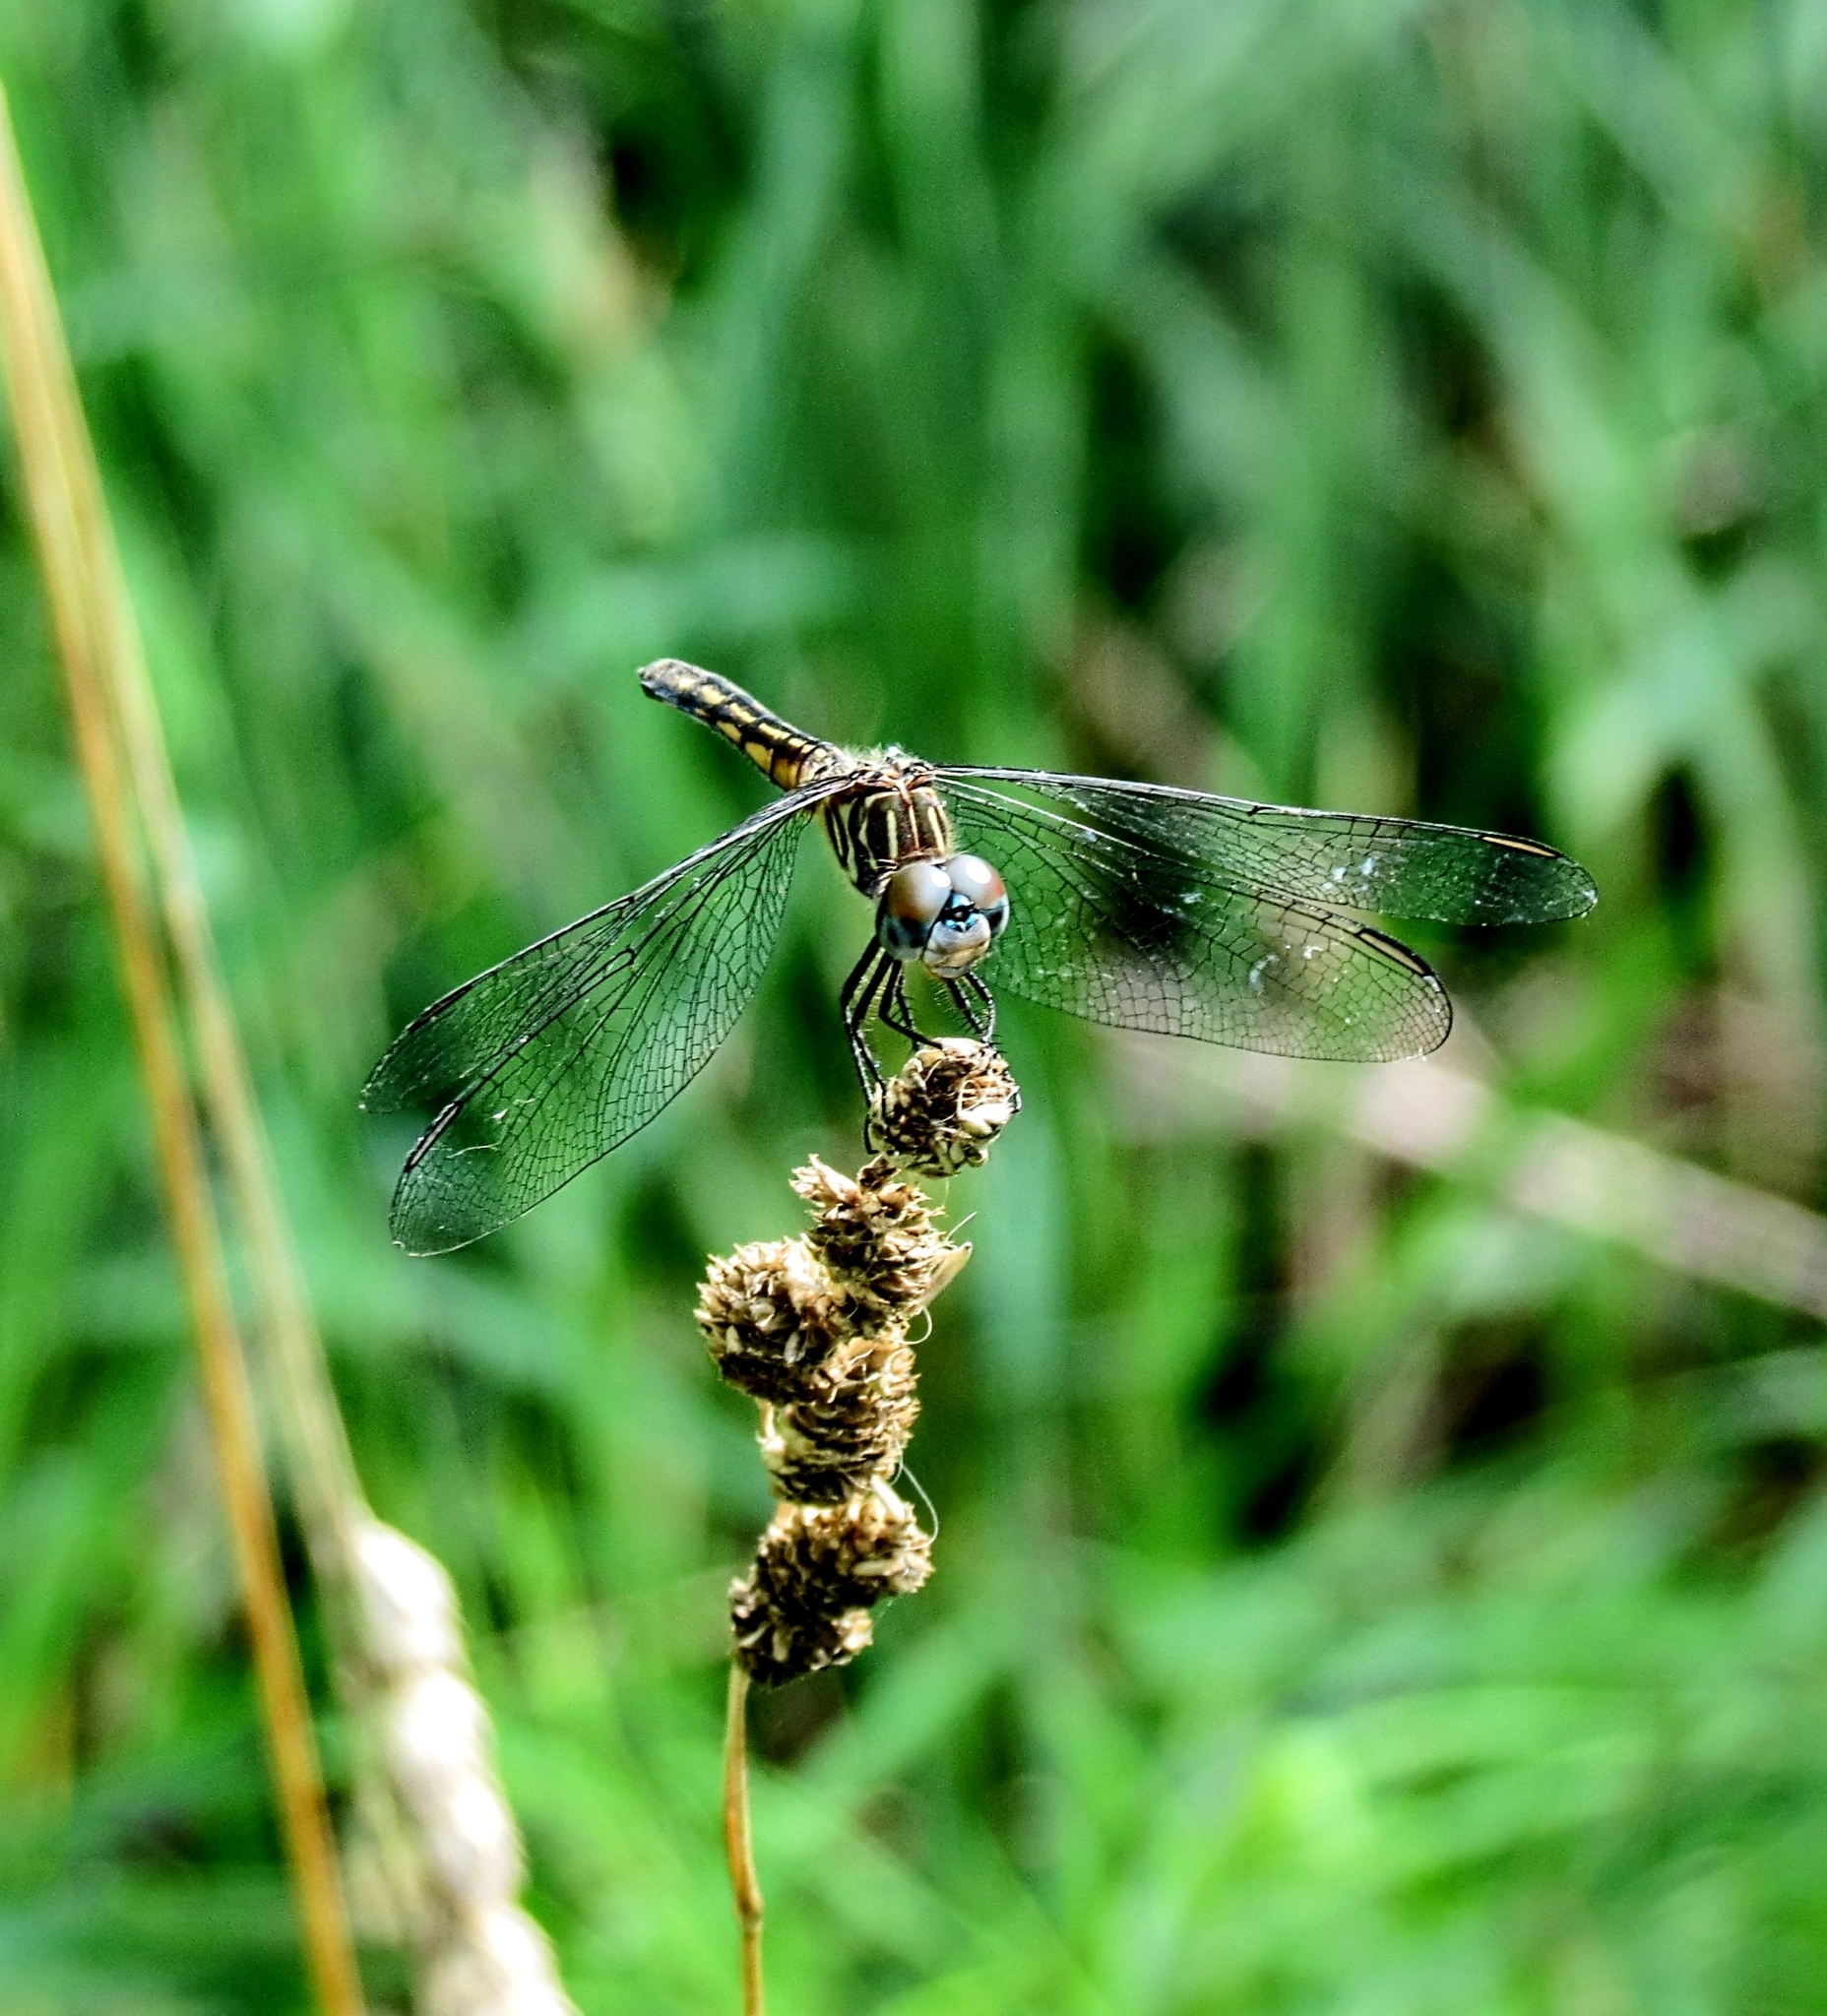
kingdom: Animalia
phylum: Arthropoda
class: Insecta
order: Odonata
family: Libellulidae
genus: Pachydiplax
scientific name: Pachydiplax longipennis
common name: Blue dasher
